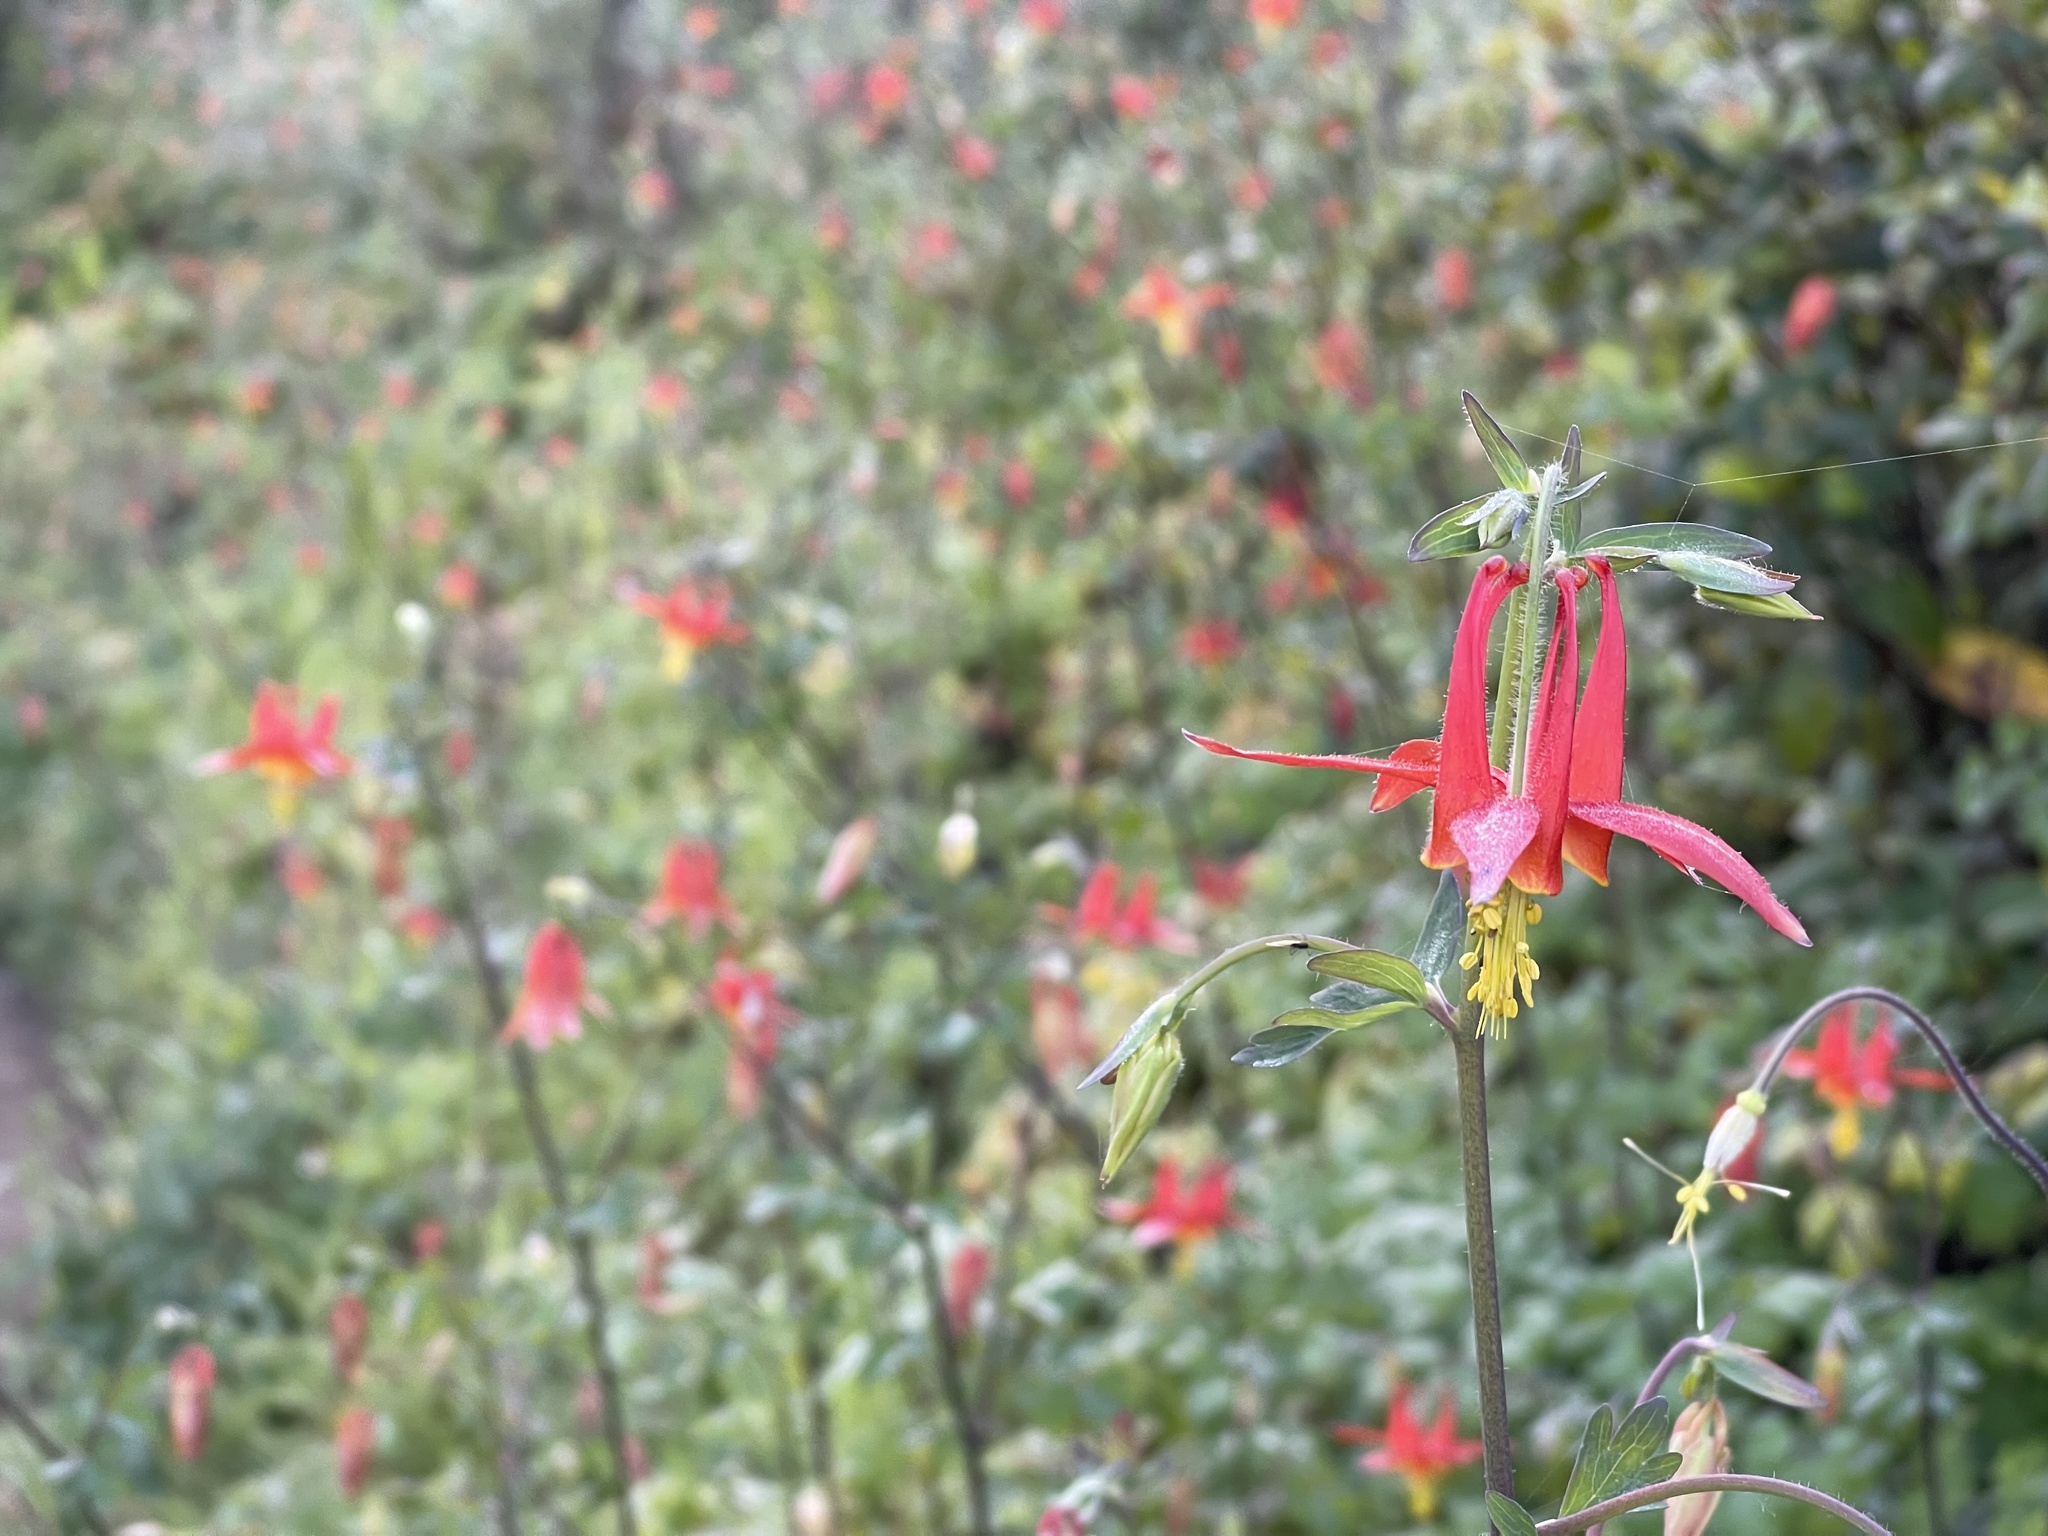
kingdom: Plantae
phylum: Tracheophyta
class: Magnoliopsida
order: Ranunculales
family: Ranunculaceae
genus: Aquilegia
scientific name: Aquilegia formosa
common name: Sitka columbine
